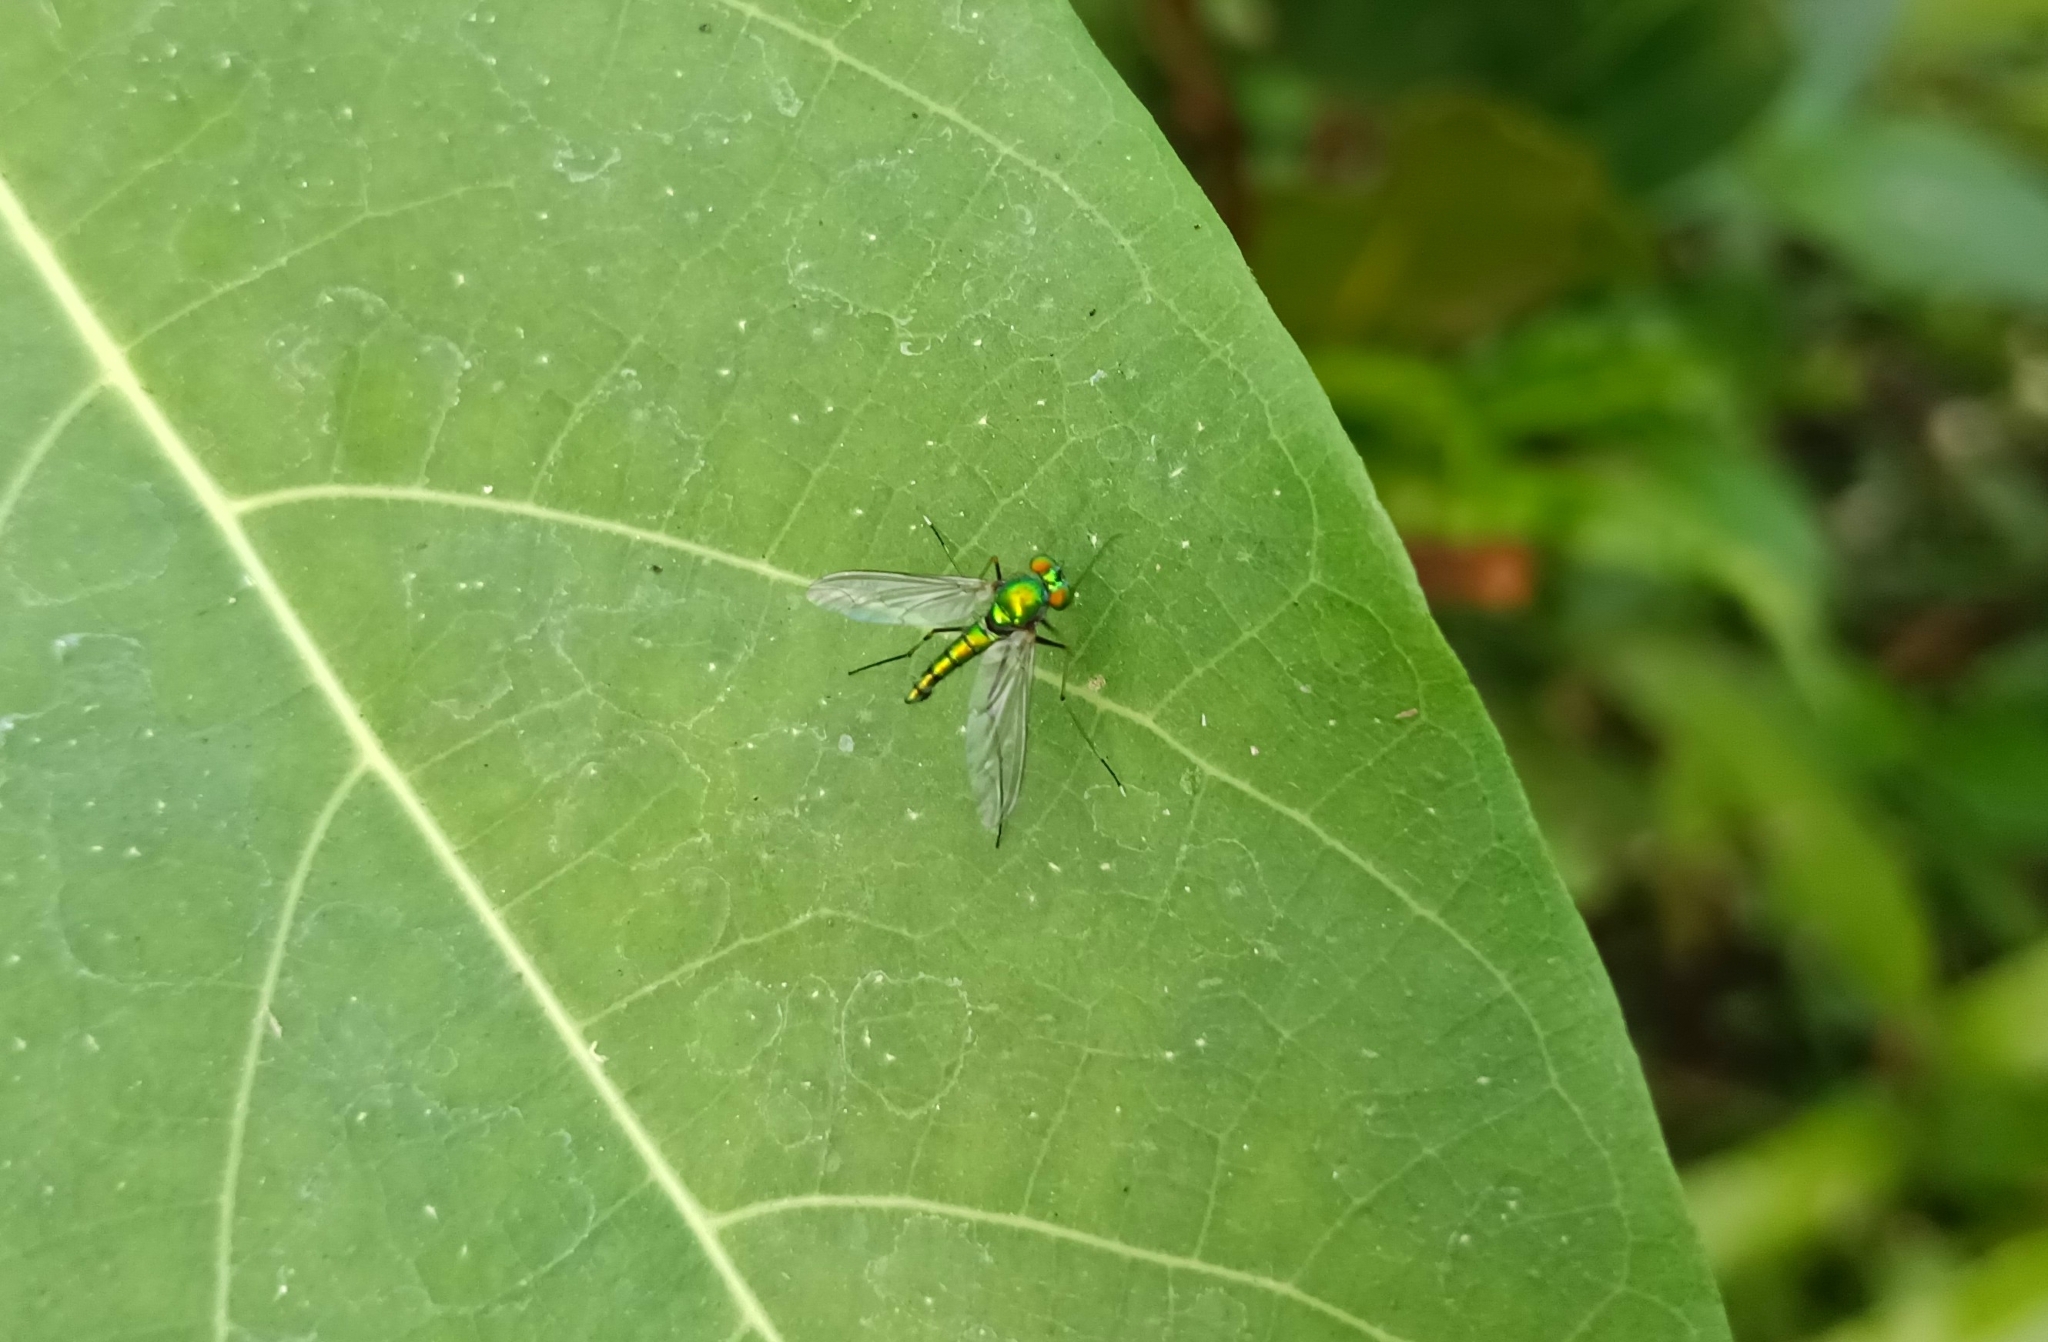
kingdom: Animalia
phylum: Arthropoda
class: Insecta
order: Diptera
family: Dolichopodidae
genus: Chrysosoma
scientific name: Chrysosoma leucopogon
